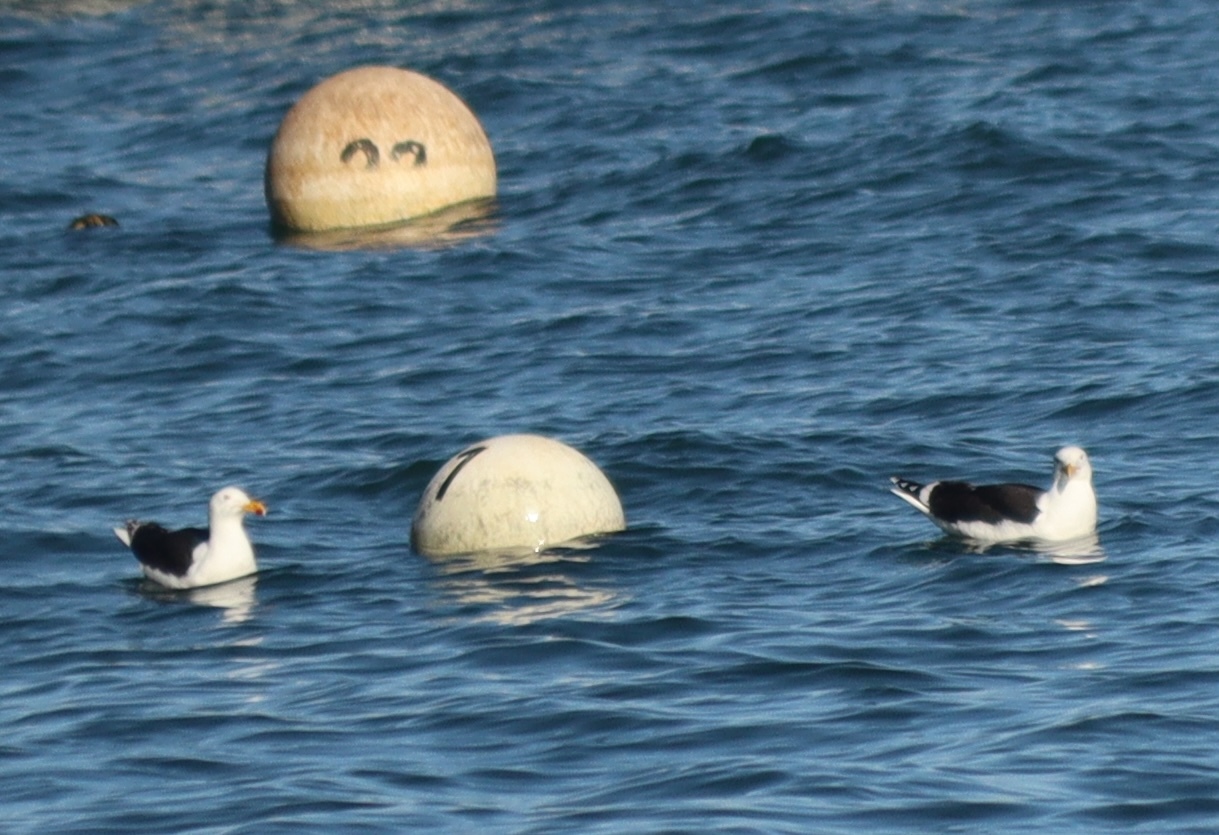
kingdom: Animalia
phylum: Chordata
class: Aves
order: Charadriiformes
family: Laridae
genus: Larus
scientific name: Larus marinus
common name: Great black-backed gull
